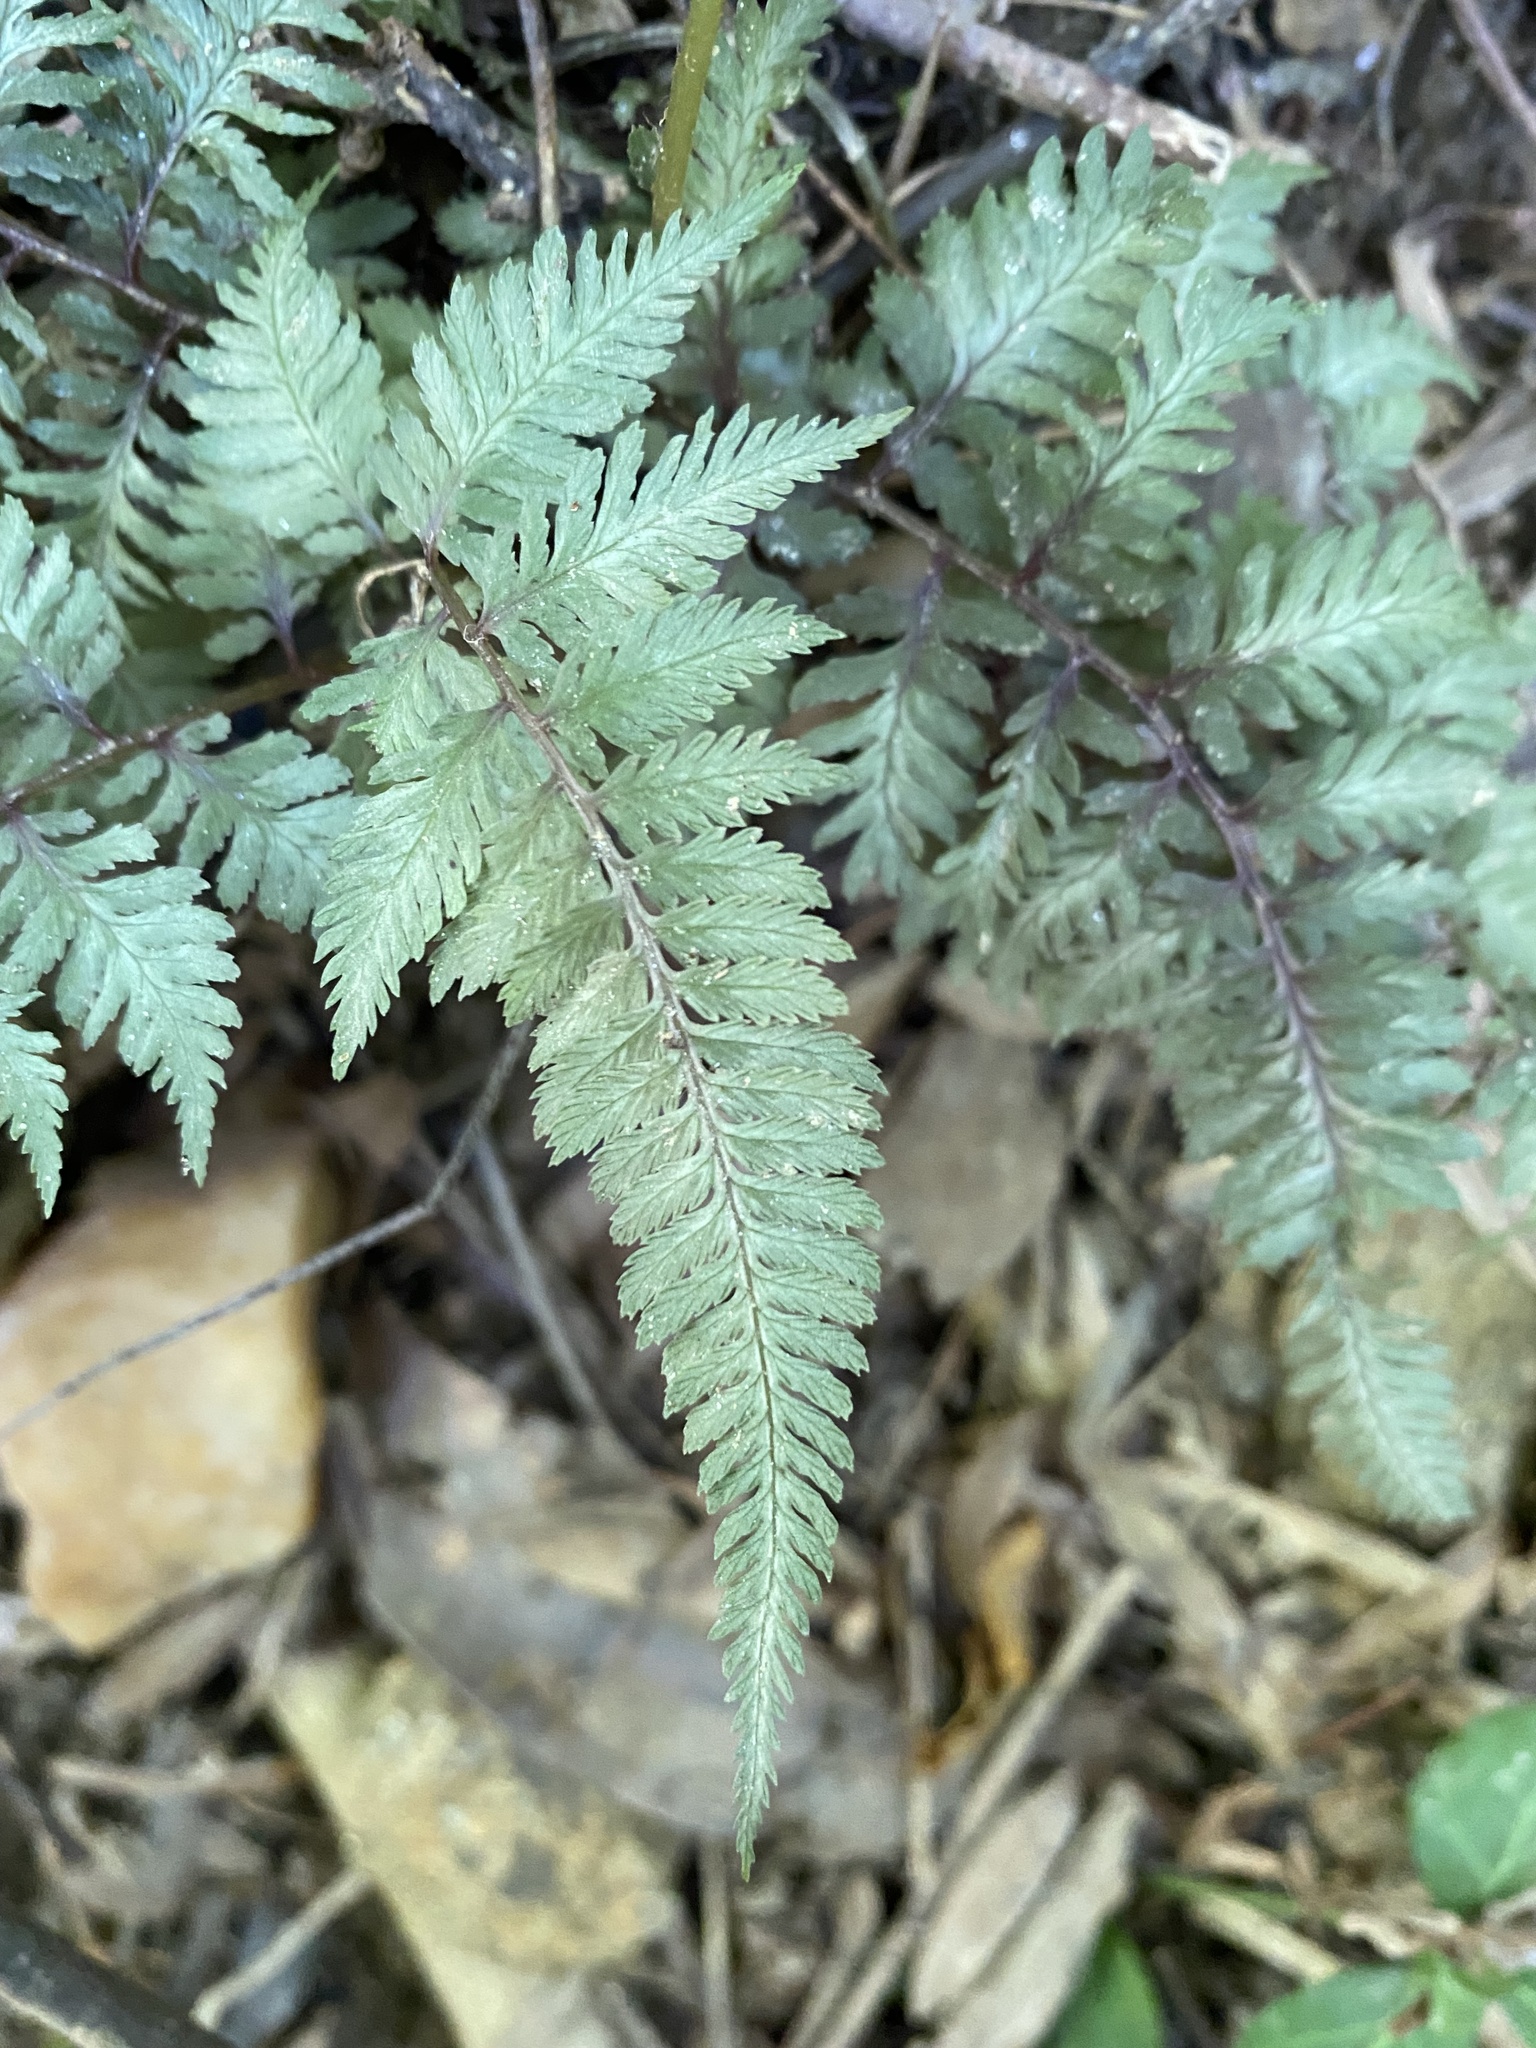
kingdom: Plantae
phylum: Tracheophyta
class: Polypodiopsida
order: Polypodiales
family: Athyriaceae
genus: Anisocampium
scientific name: Anisocampium niponicum
